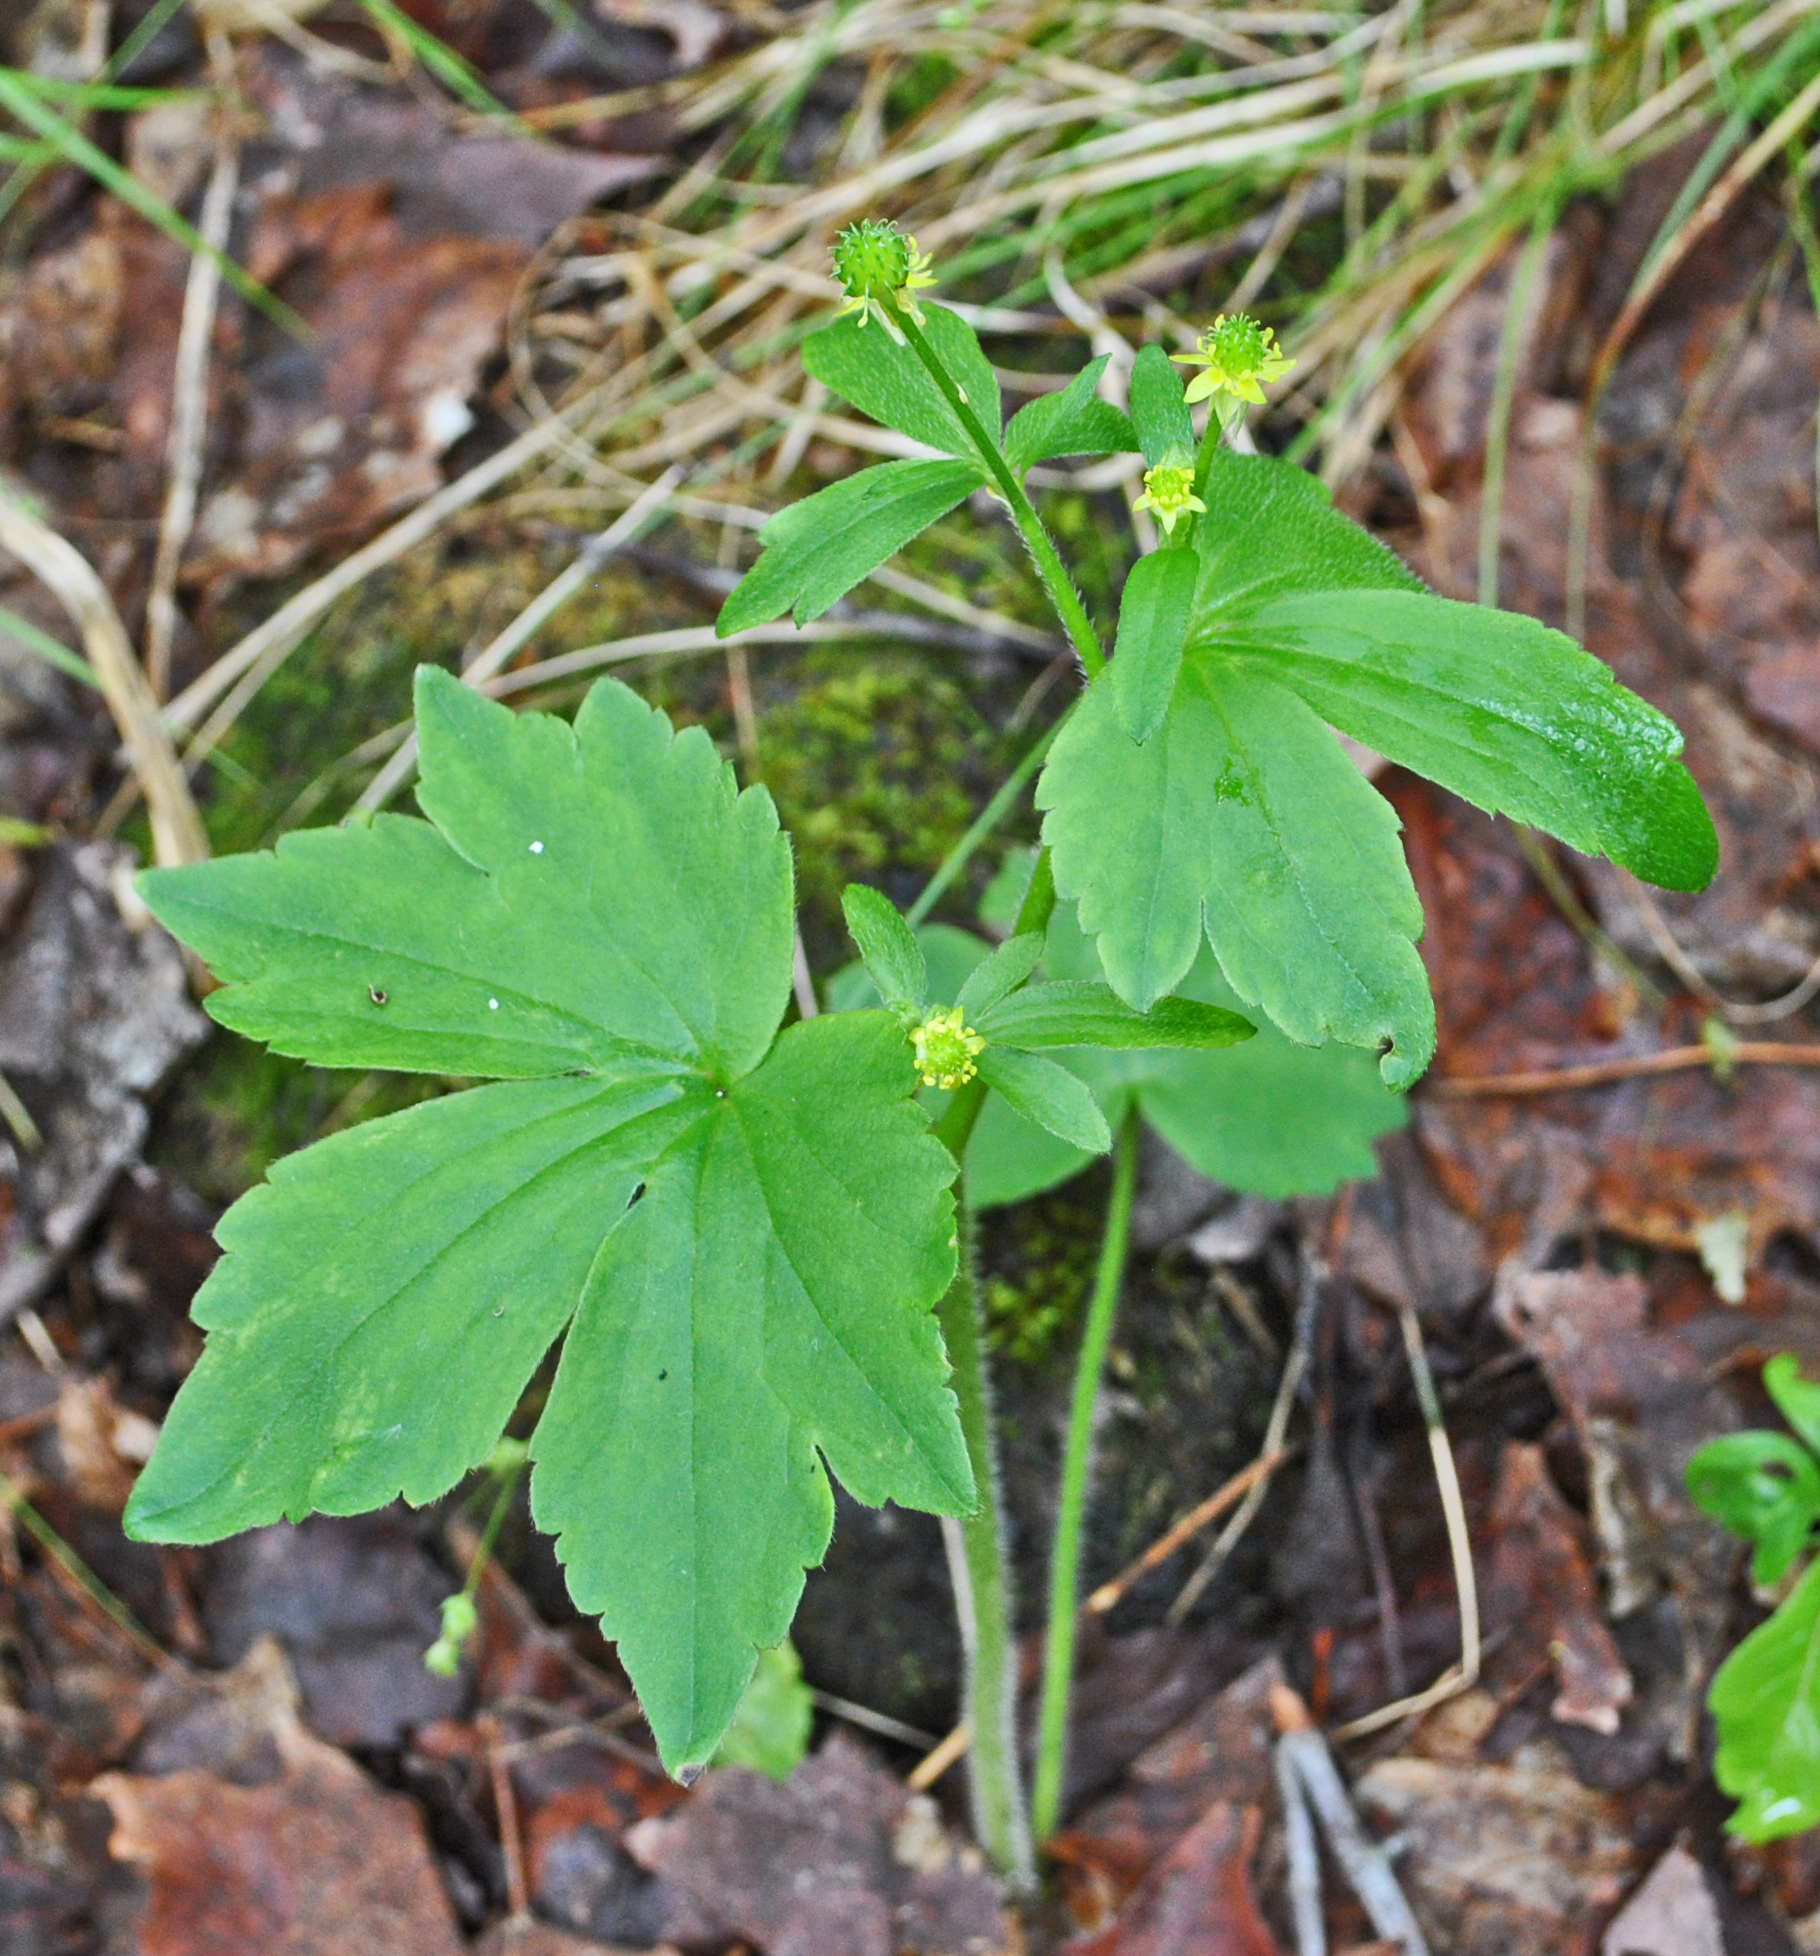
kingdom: Plantae
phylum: Tracheophyta
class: Magnoliopsida
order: Ranunculales
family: Ranunculaceae
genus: Ranunculus
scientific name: Ranunculus recurvatus
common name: Blisterwort
